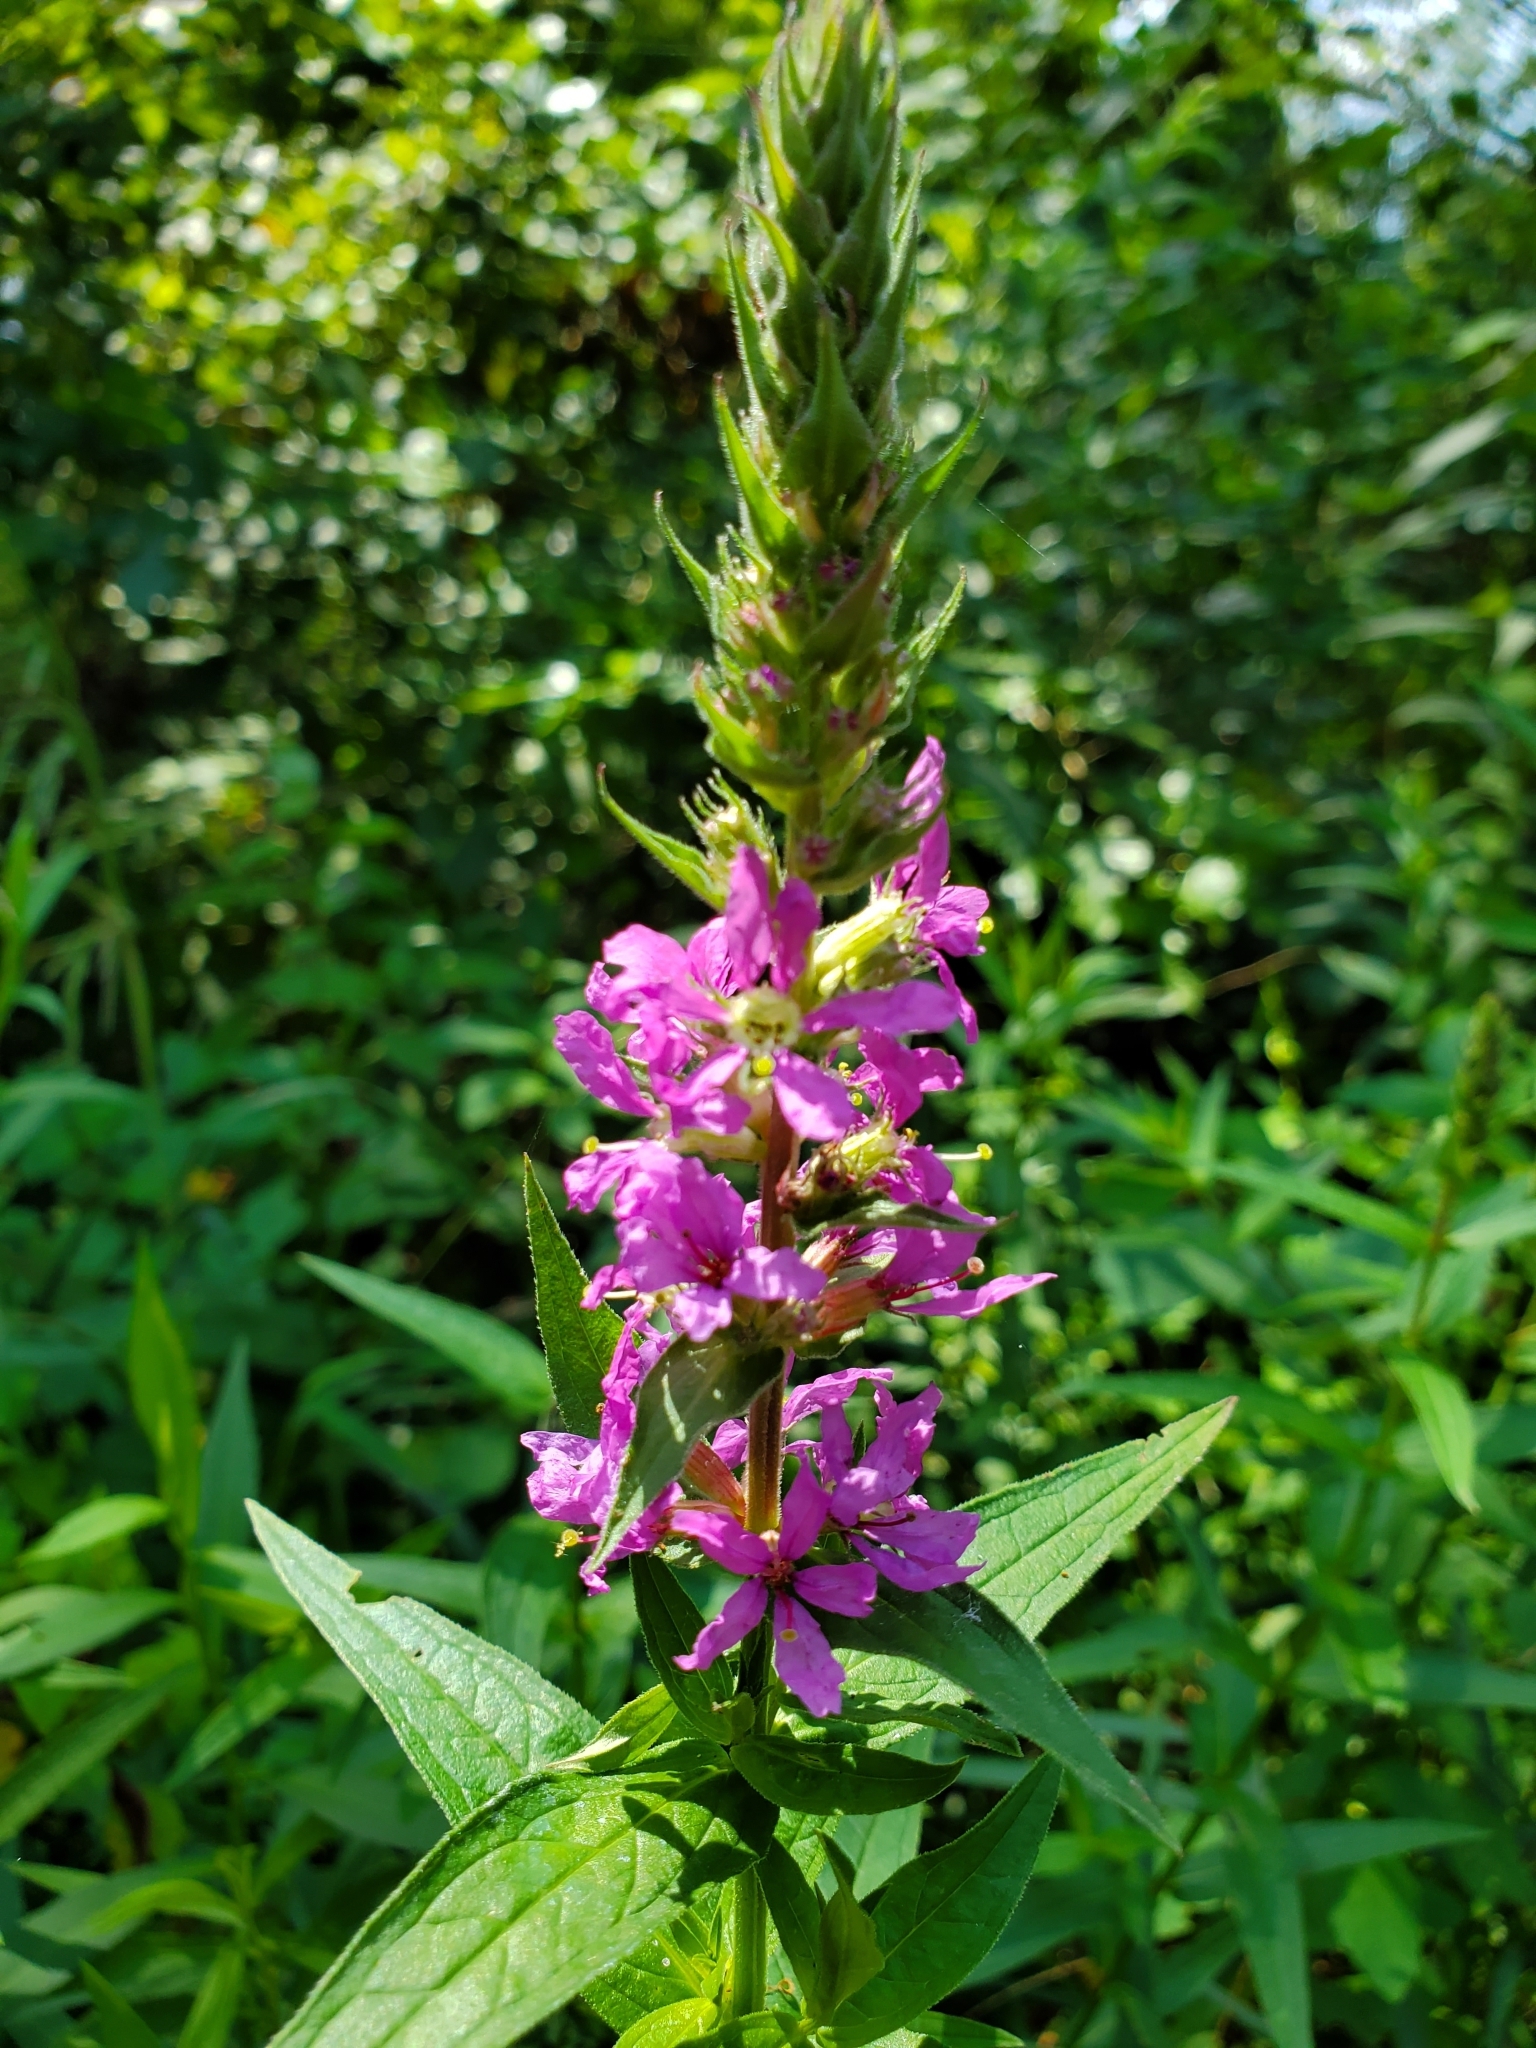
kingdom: Plantae
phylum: Tracheophyta
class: Magnoliopsida
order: Myrtales
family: Lythraceae
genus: Lythrum
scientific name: Lythrum salicaria
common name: Purple loosestrife
